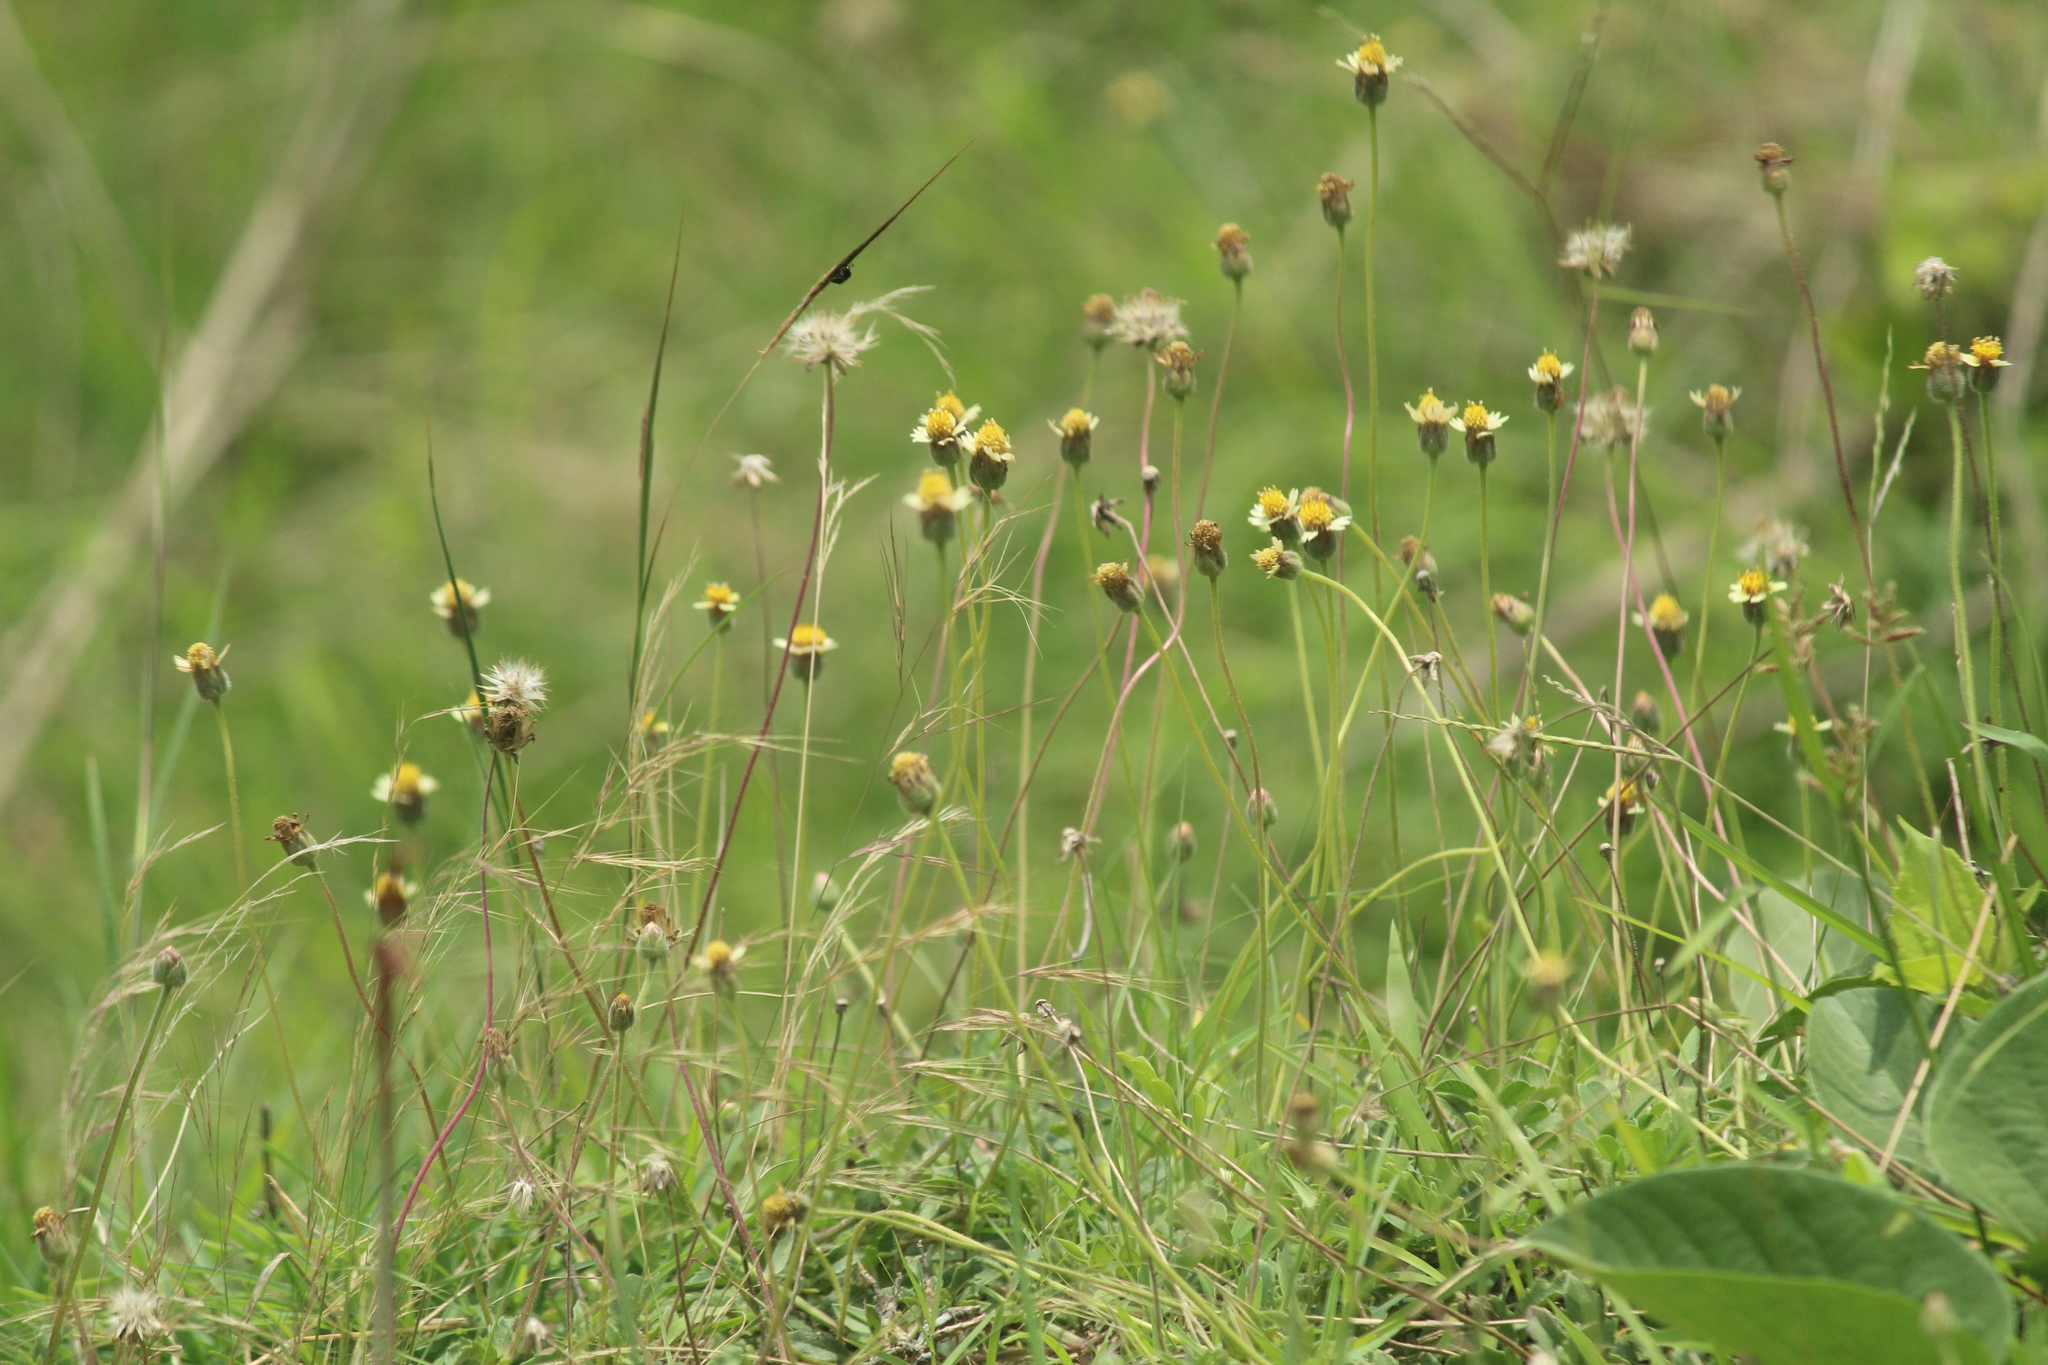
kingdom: Plantae
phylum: Tracheophyta
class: Magnoliopsida
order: Asterales
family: Asteraceae
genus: Tridax
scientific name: Tridax procumbens
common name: Coatbuttons
